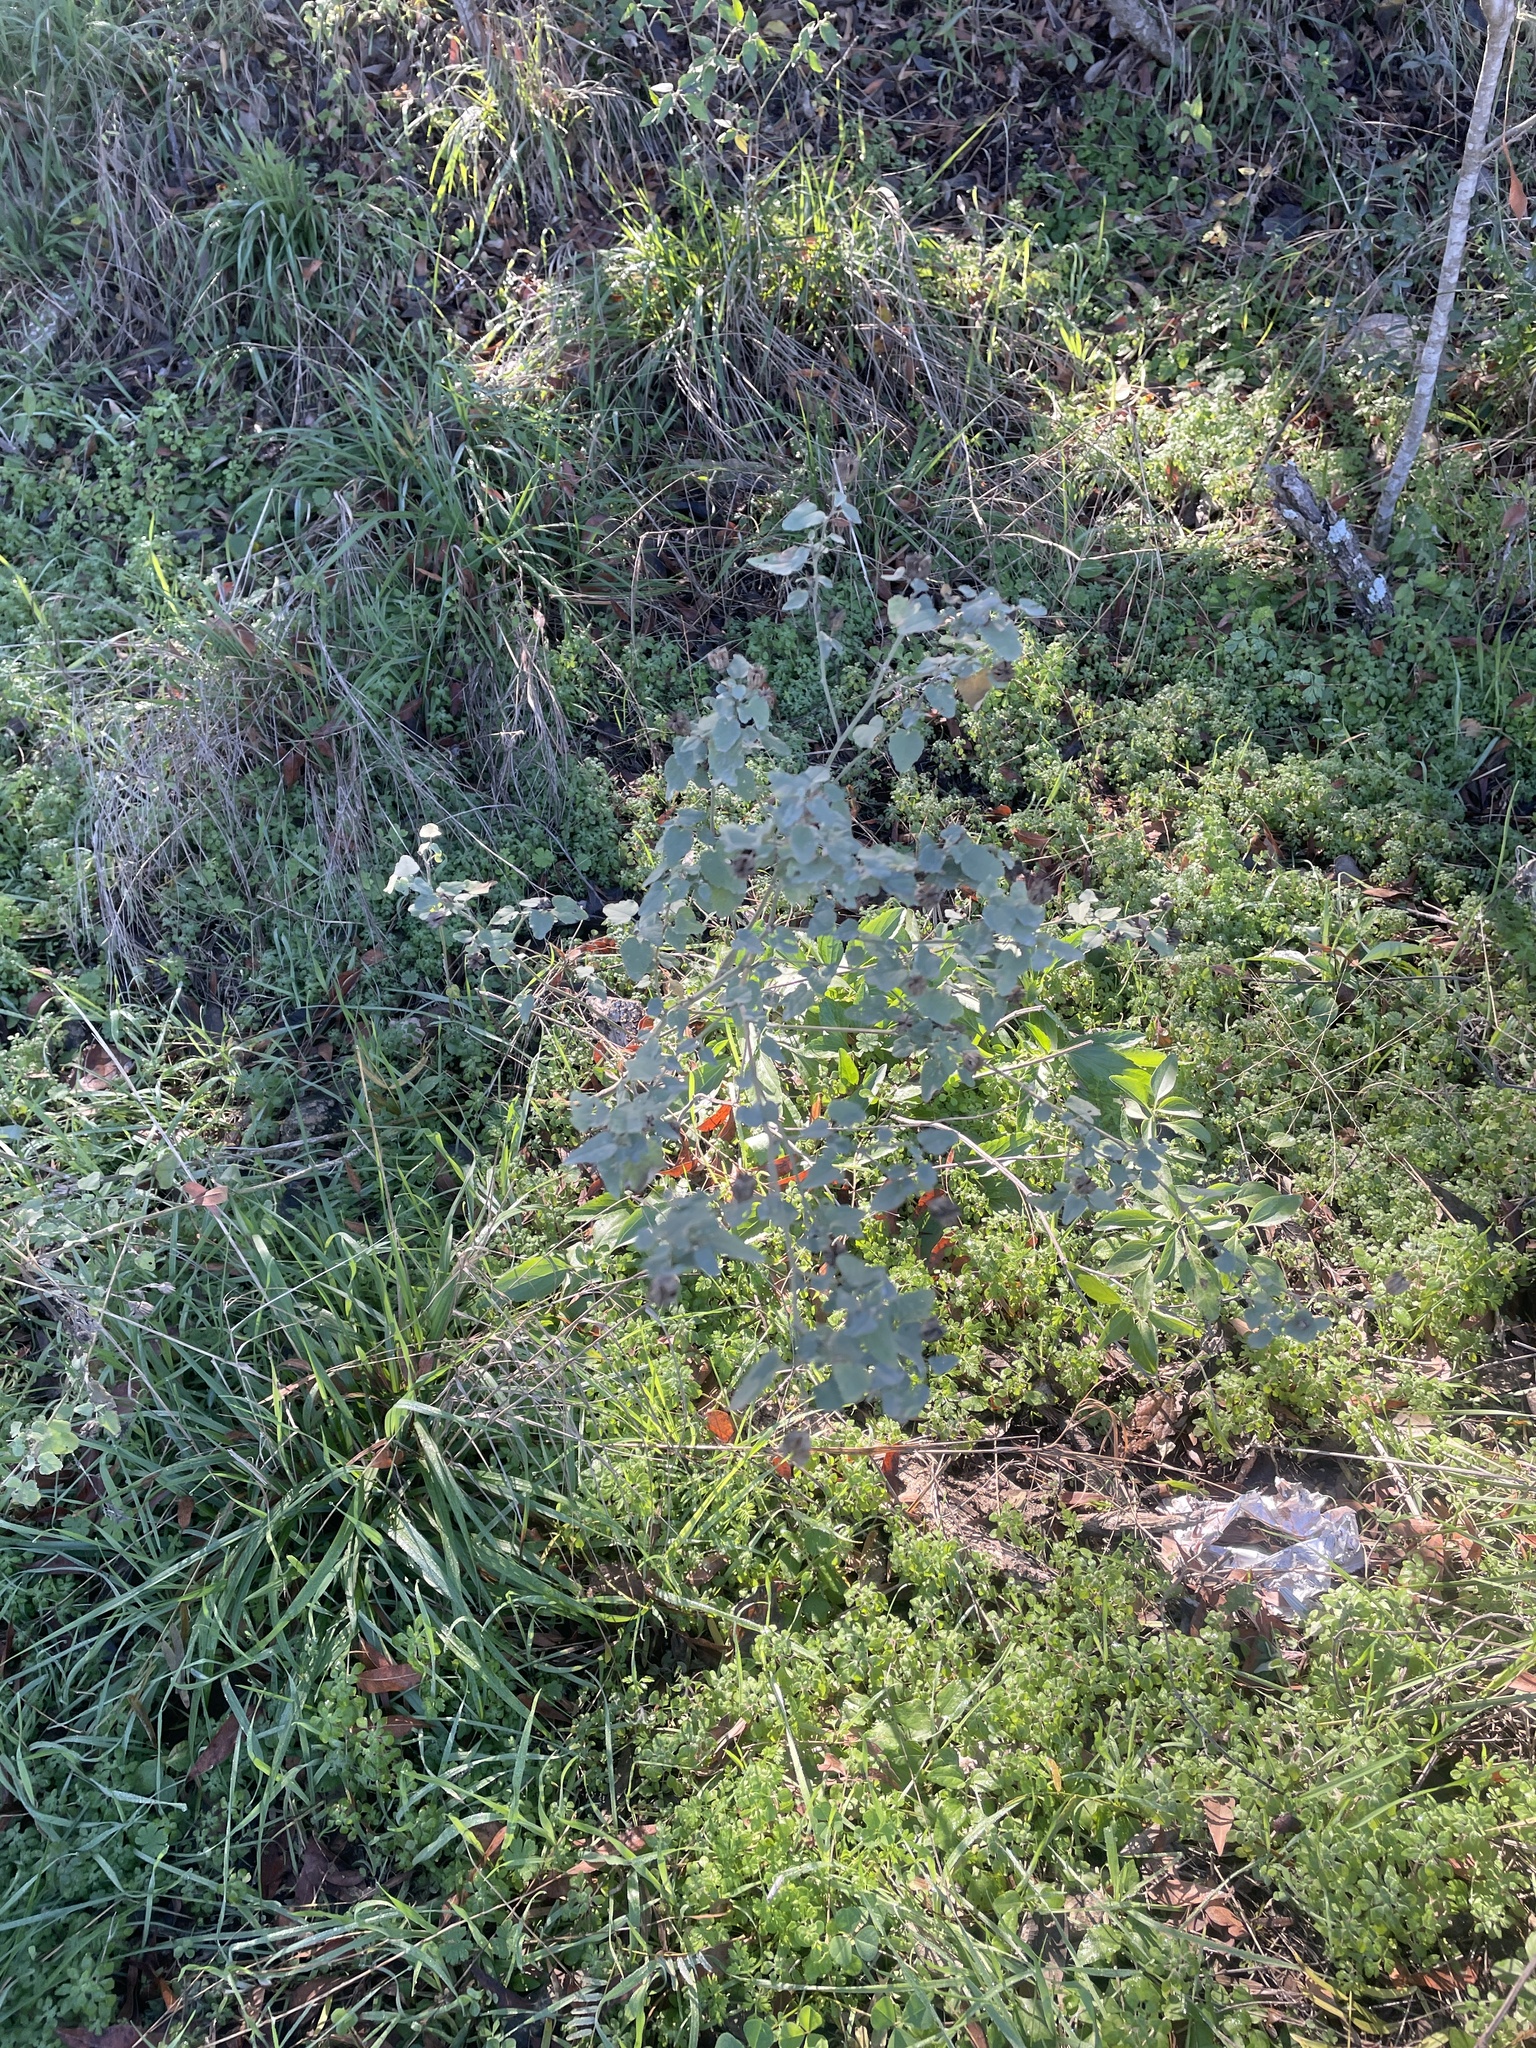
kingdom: Plantae
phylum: Tracheophyta
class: Magnoliopsida
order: Malvales
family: Malvaceae
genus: Abutilon
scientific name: Abutilon fruticosum
